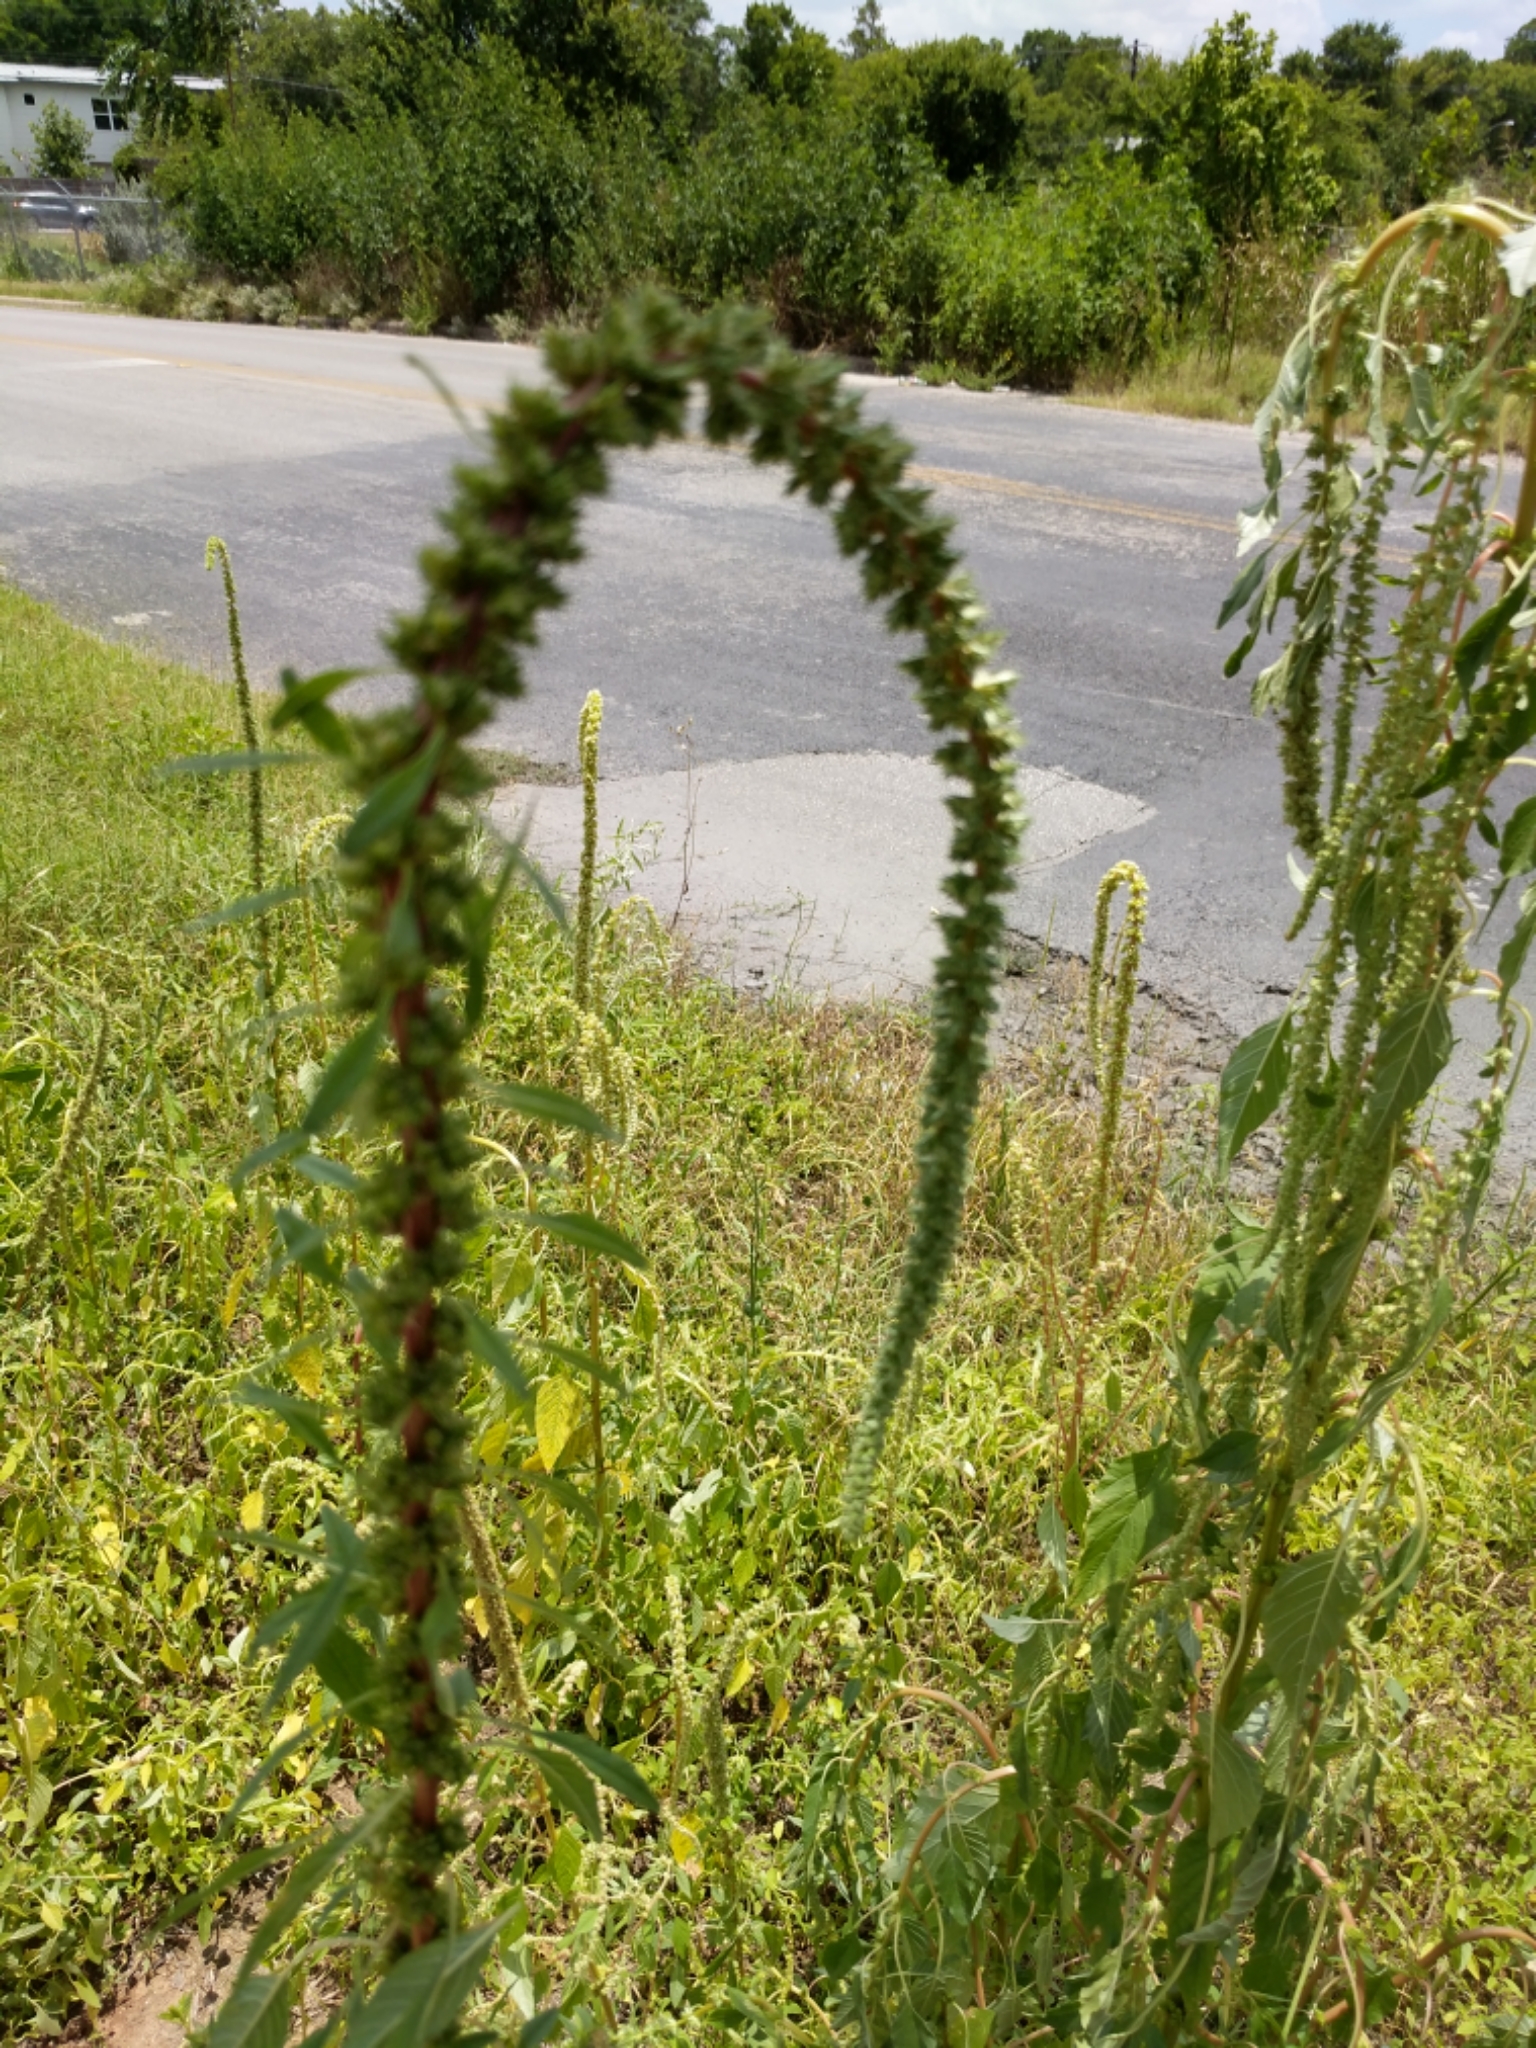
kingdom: Plantae
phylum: Tracheophyta
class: Magnoliopsida
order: Caryophyllales
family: Amaranthaceae
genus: Amaranthus
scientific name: Amaranthus palmeri
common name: Dioecious amaranth
